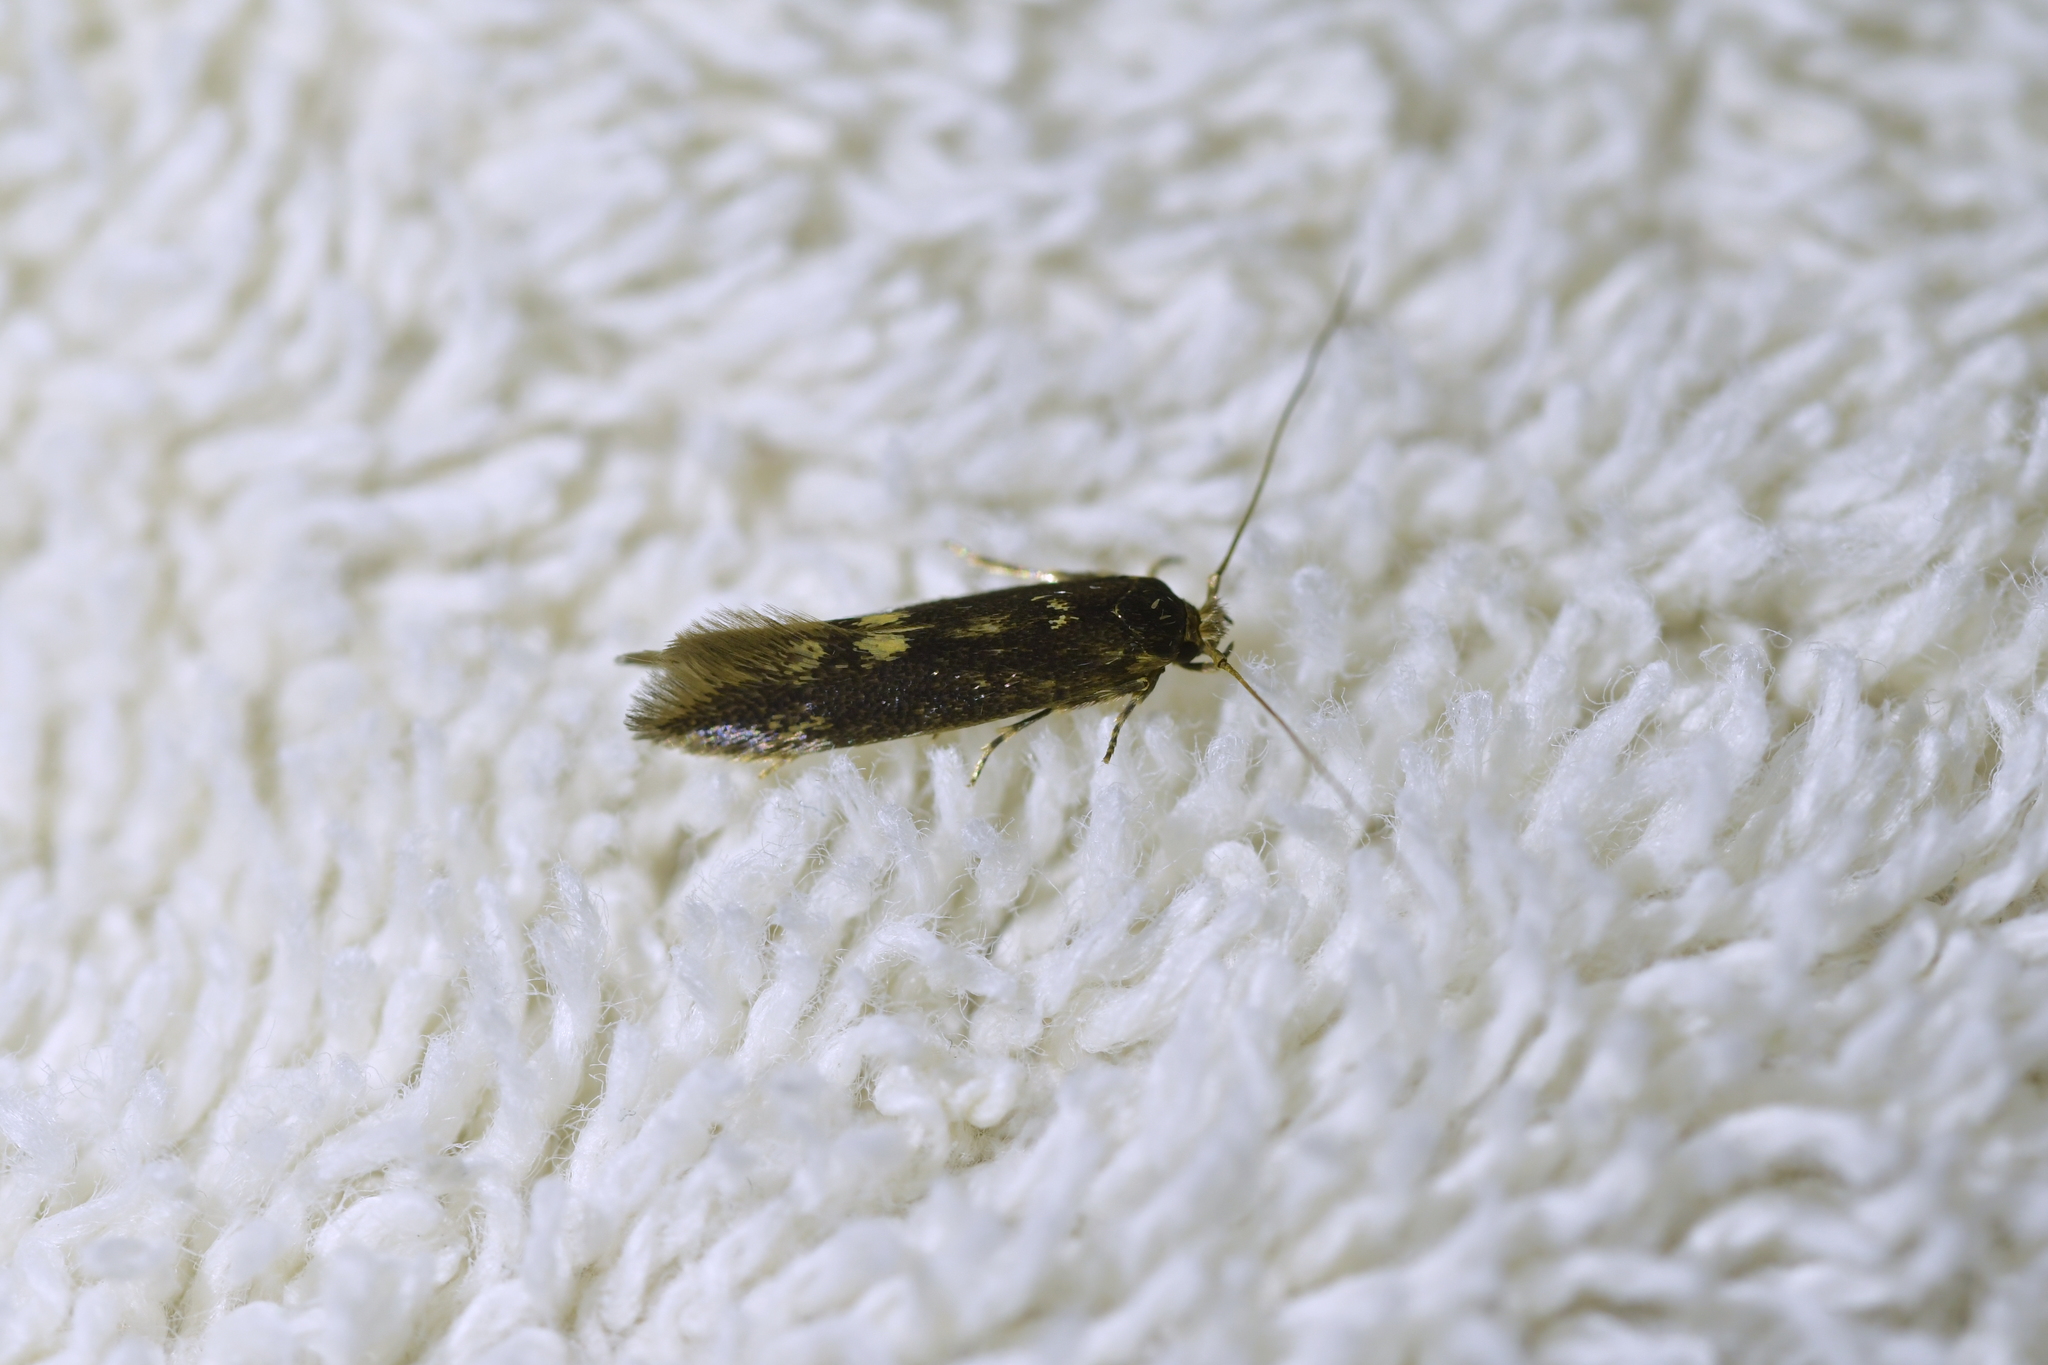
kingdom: Animalia
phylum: Arthropoda
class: Insecta
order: Lepidoptera
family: Tineidae
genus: Opogona
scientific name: Opogona omoscopa
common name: Moth
